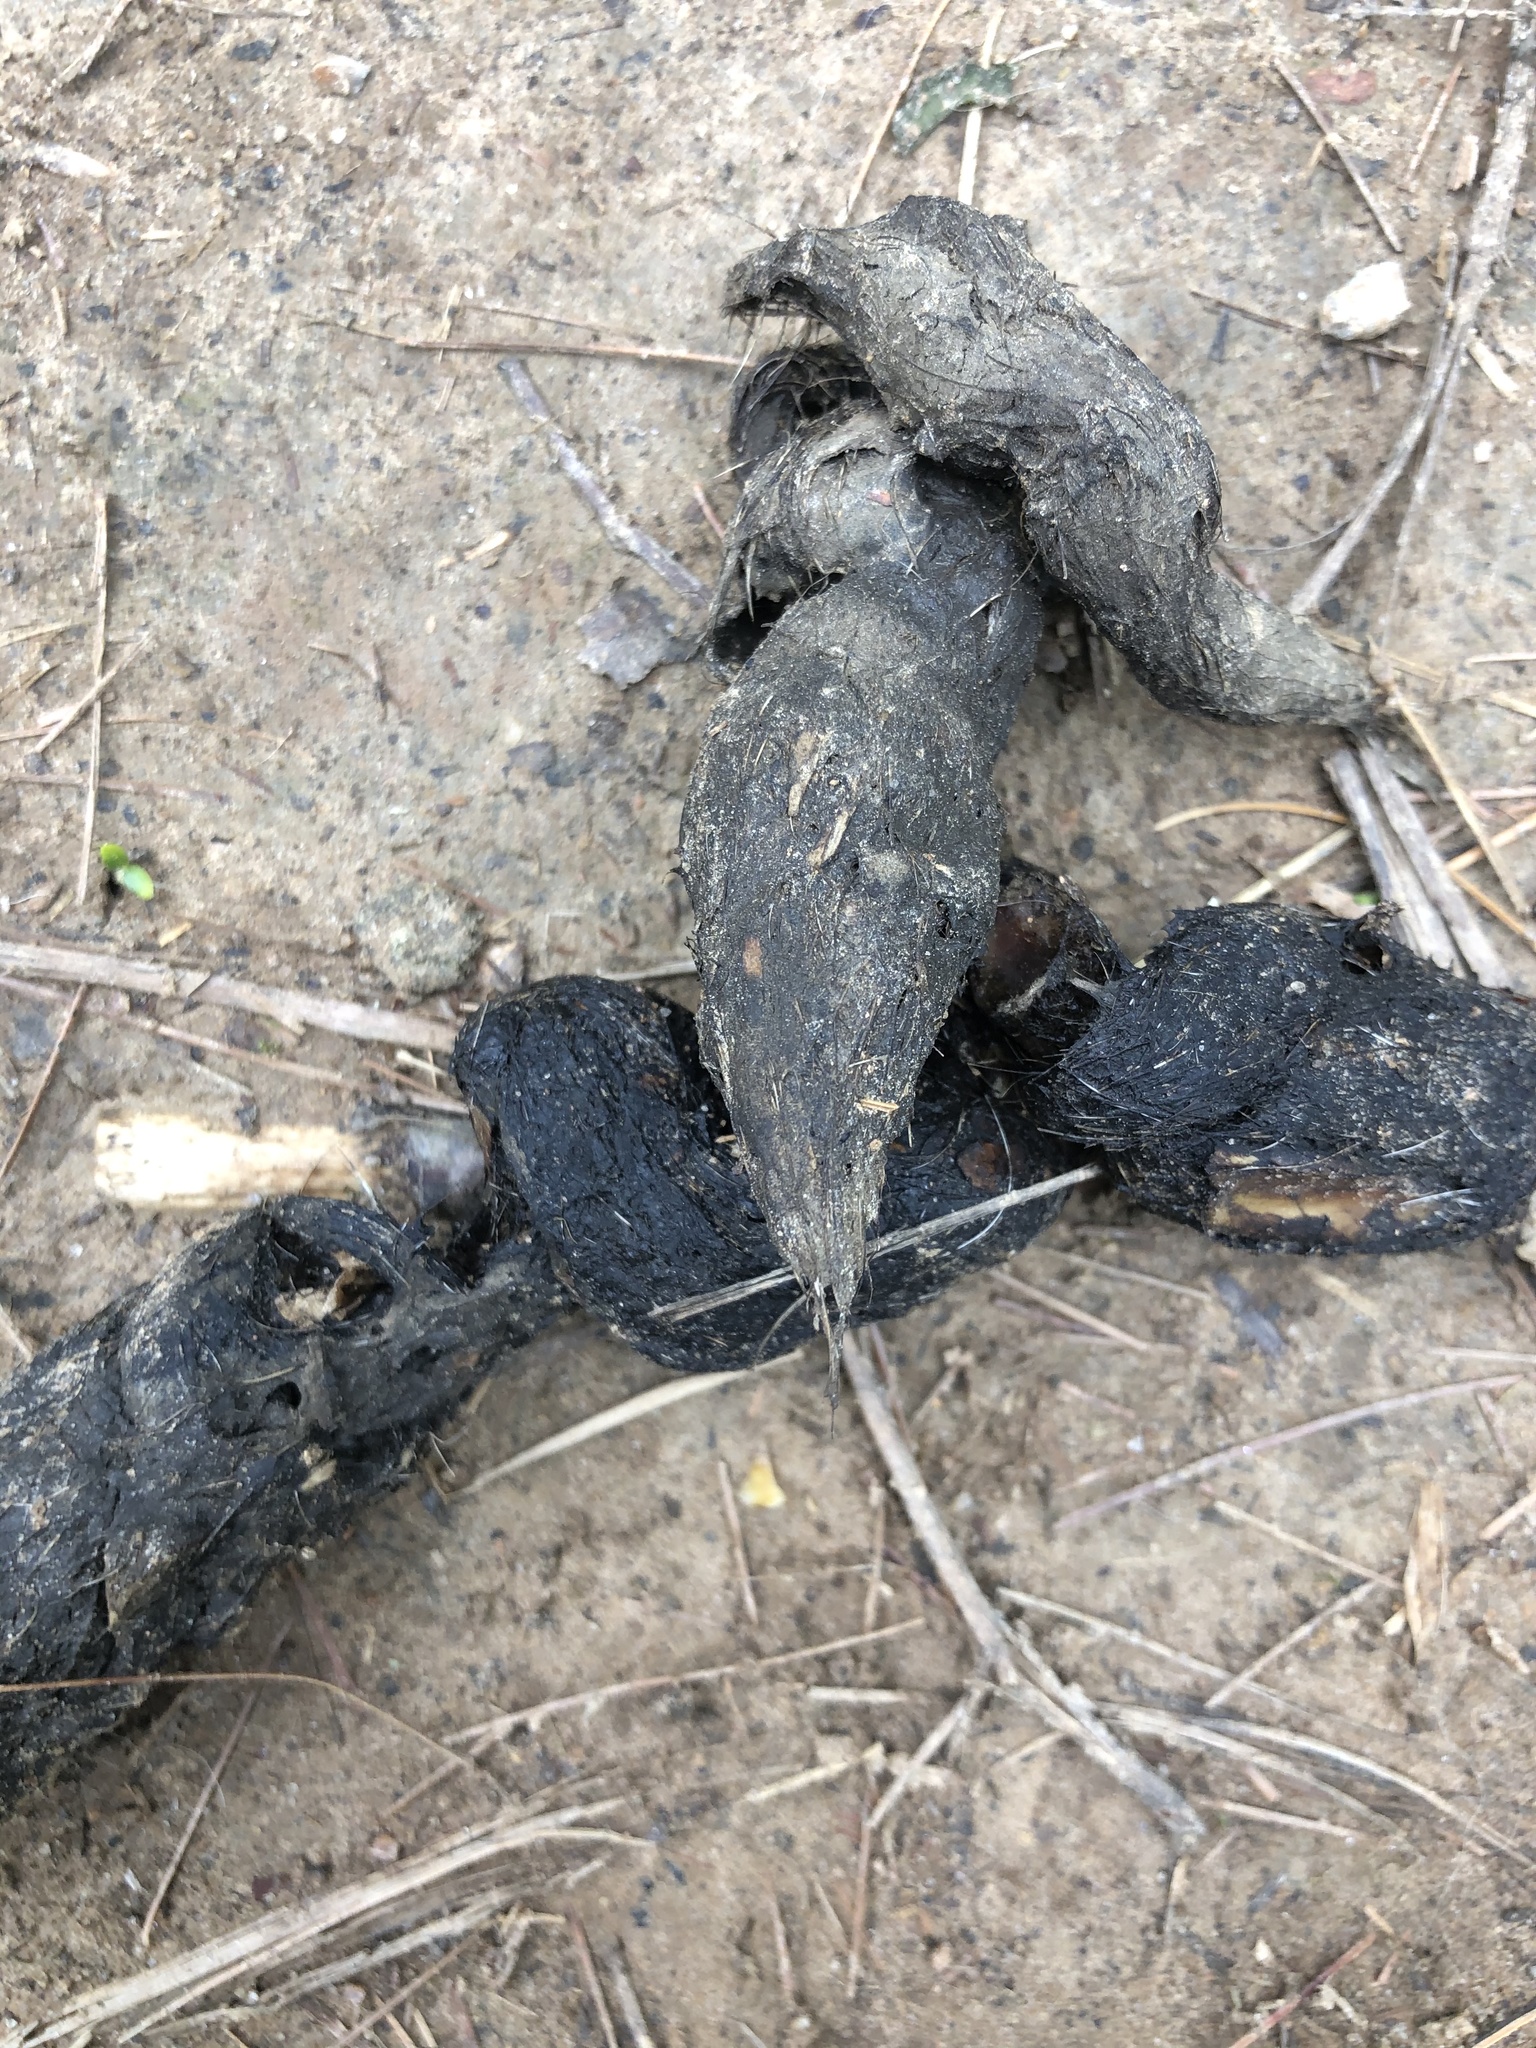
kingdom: Animalia
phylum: Chordata
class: Mammalia
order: Carnivora
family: Canidae
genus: Canis
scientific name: Canis latrans
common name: Coyote
